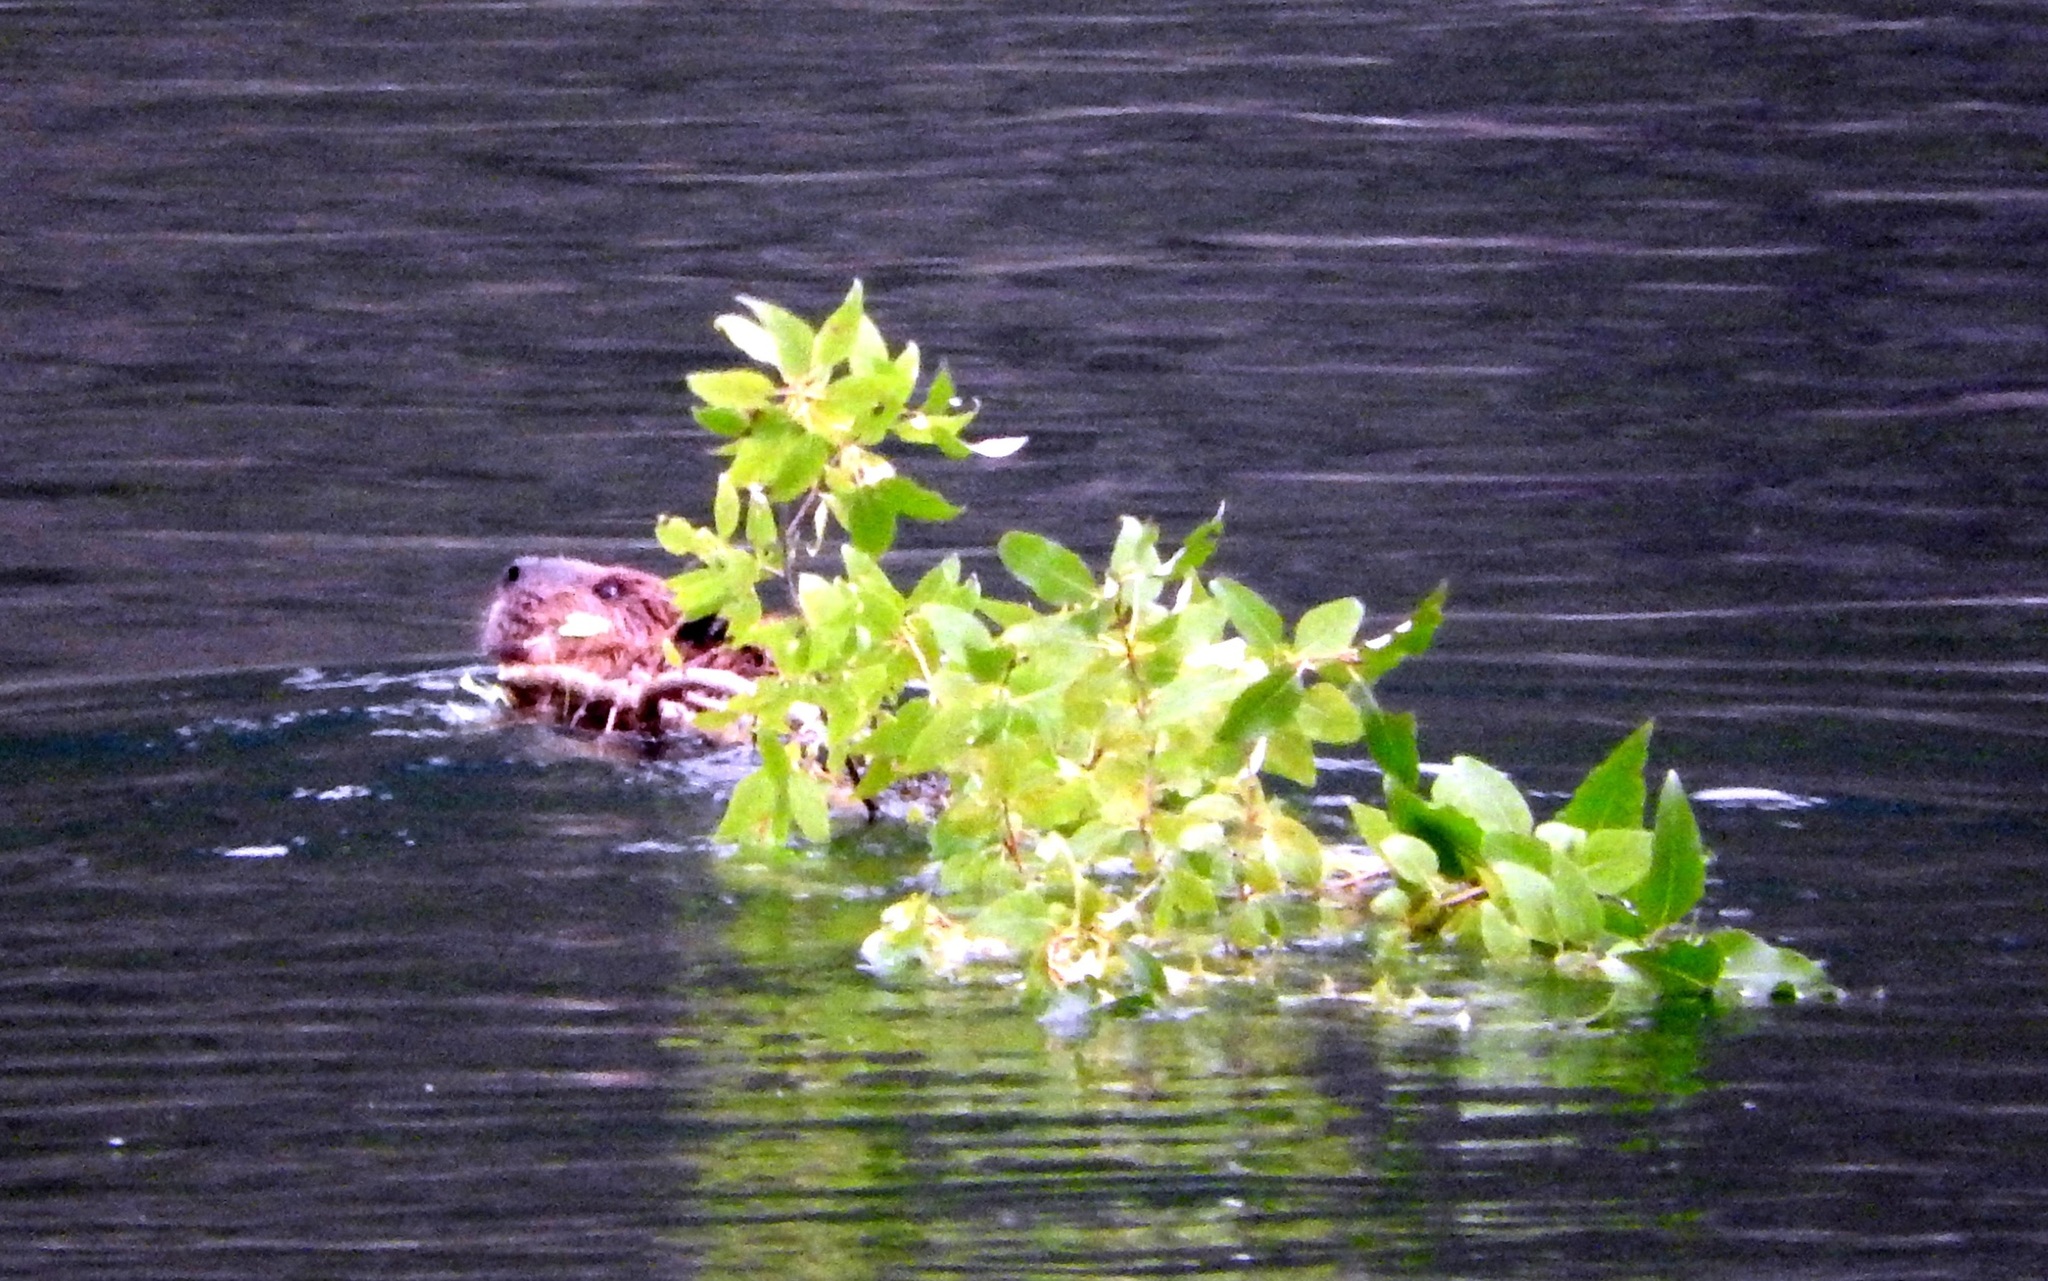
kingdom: Animalia
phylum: Chordata
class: Mammalia
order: Rodentia
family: Castoridae
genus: Castor
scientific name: Castor canadensis
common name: American beaver
